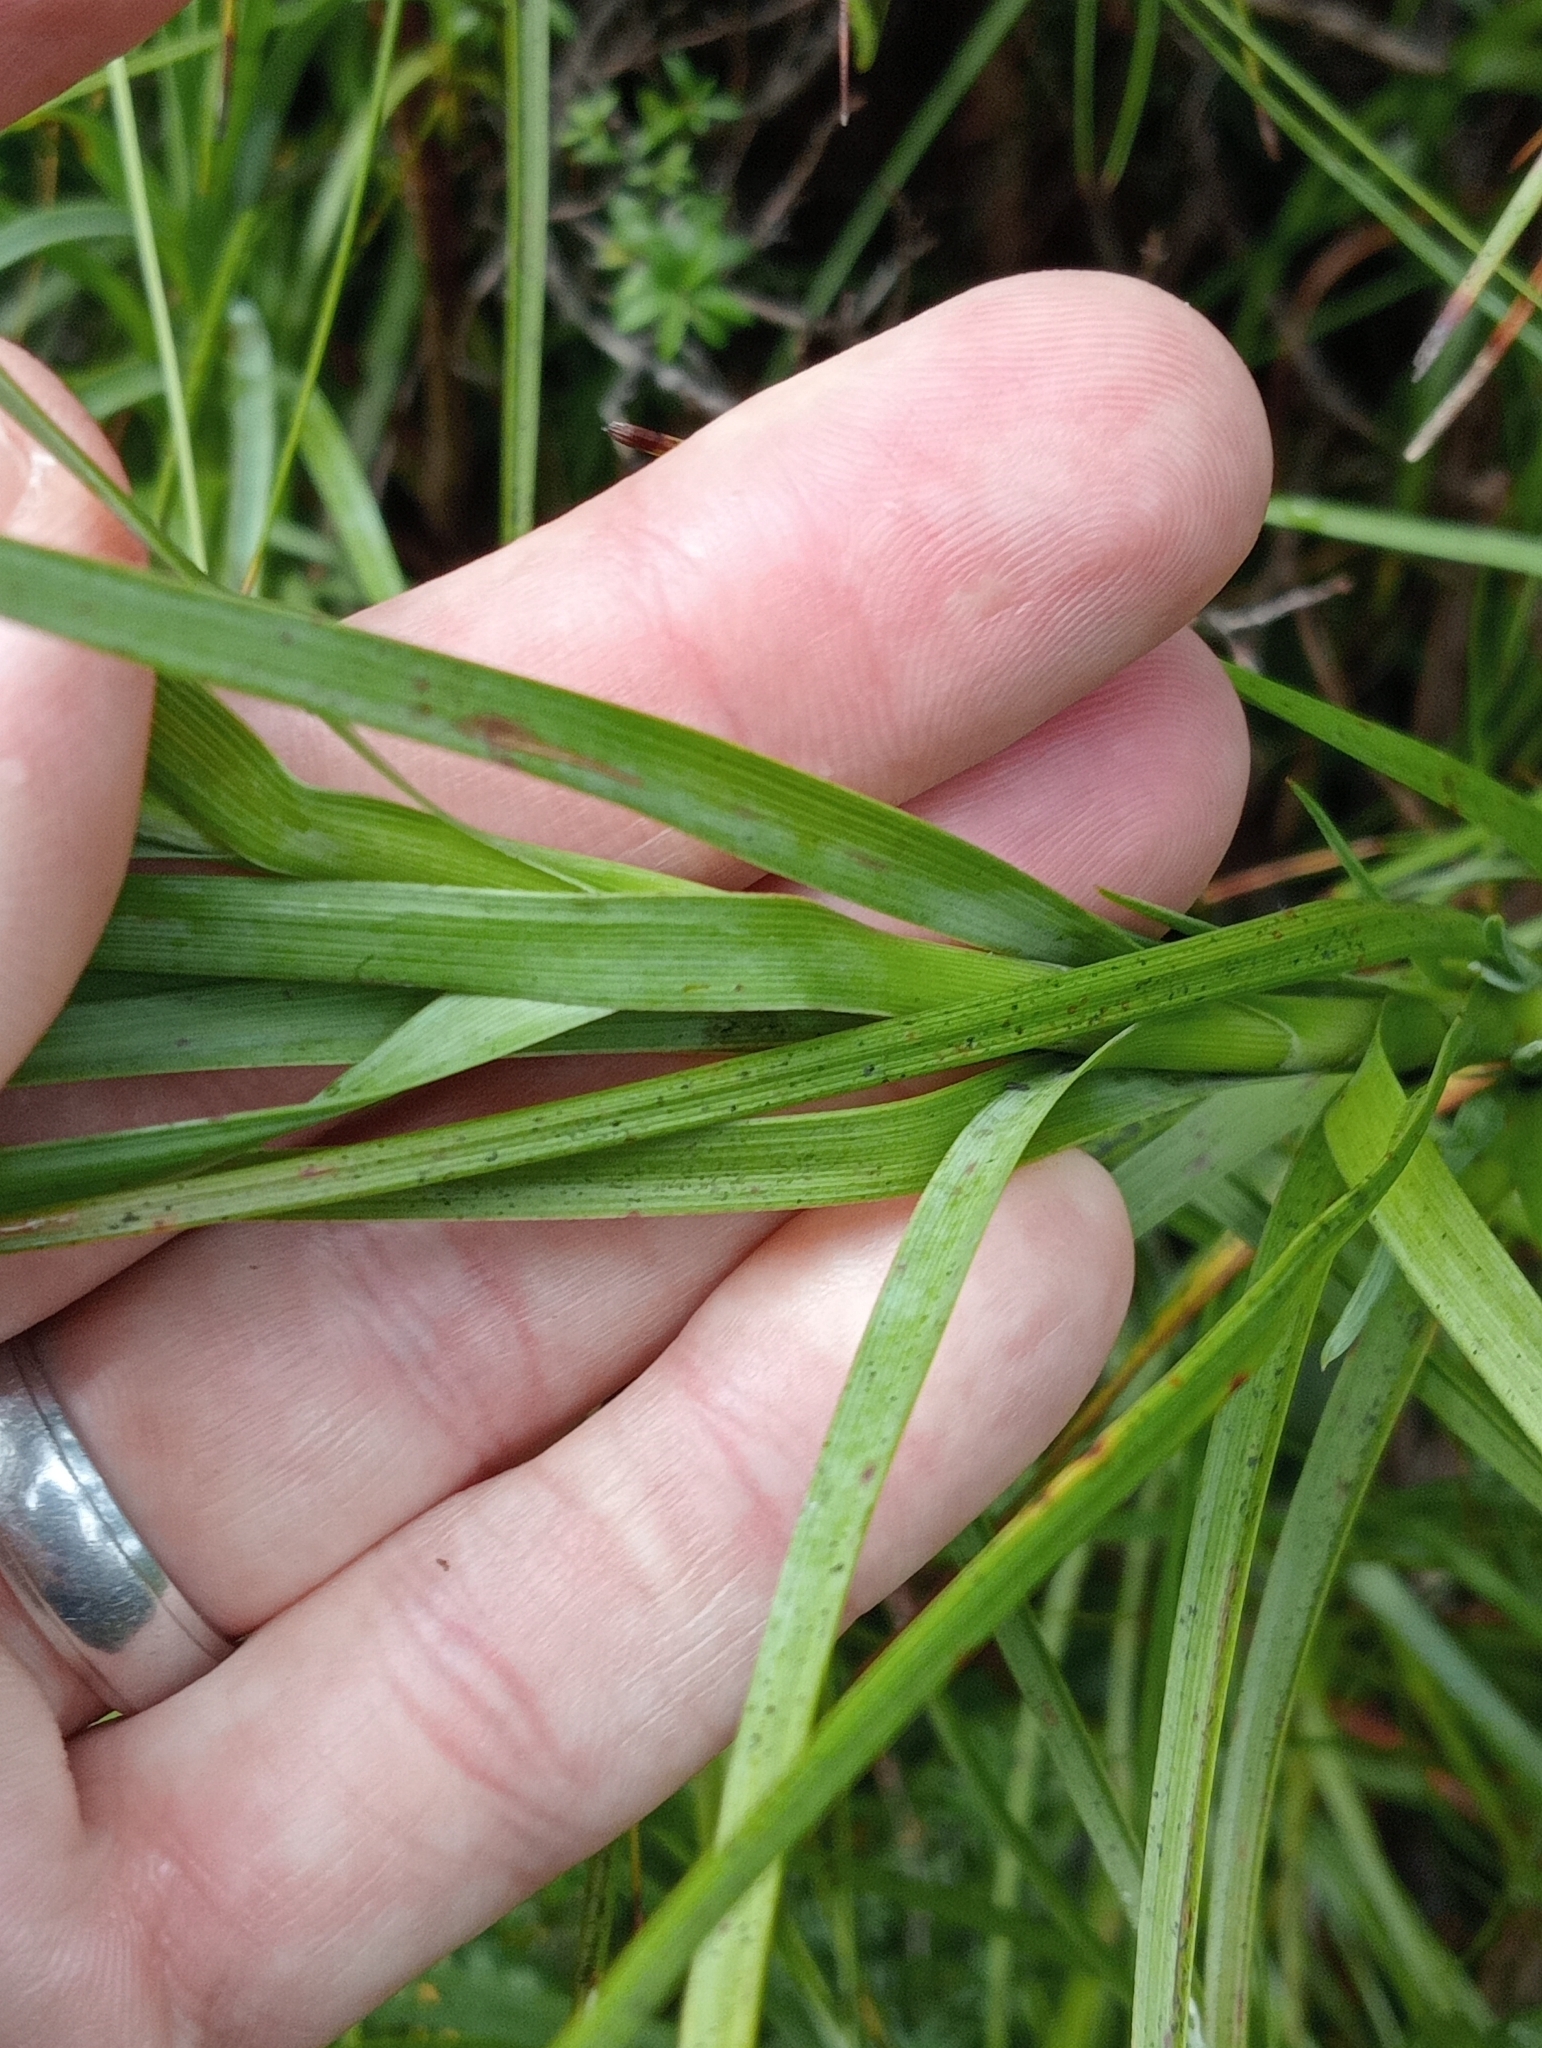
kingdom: Plantae
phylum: Tracheophyta
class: Magnoliopsida
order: Ericales
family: Ericaceae
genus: Dracophyllum
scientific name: Dracophyllum longifolium
